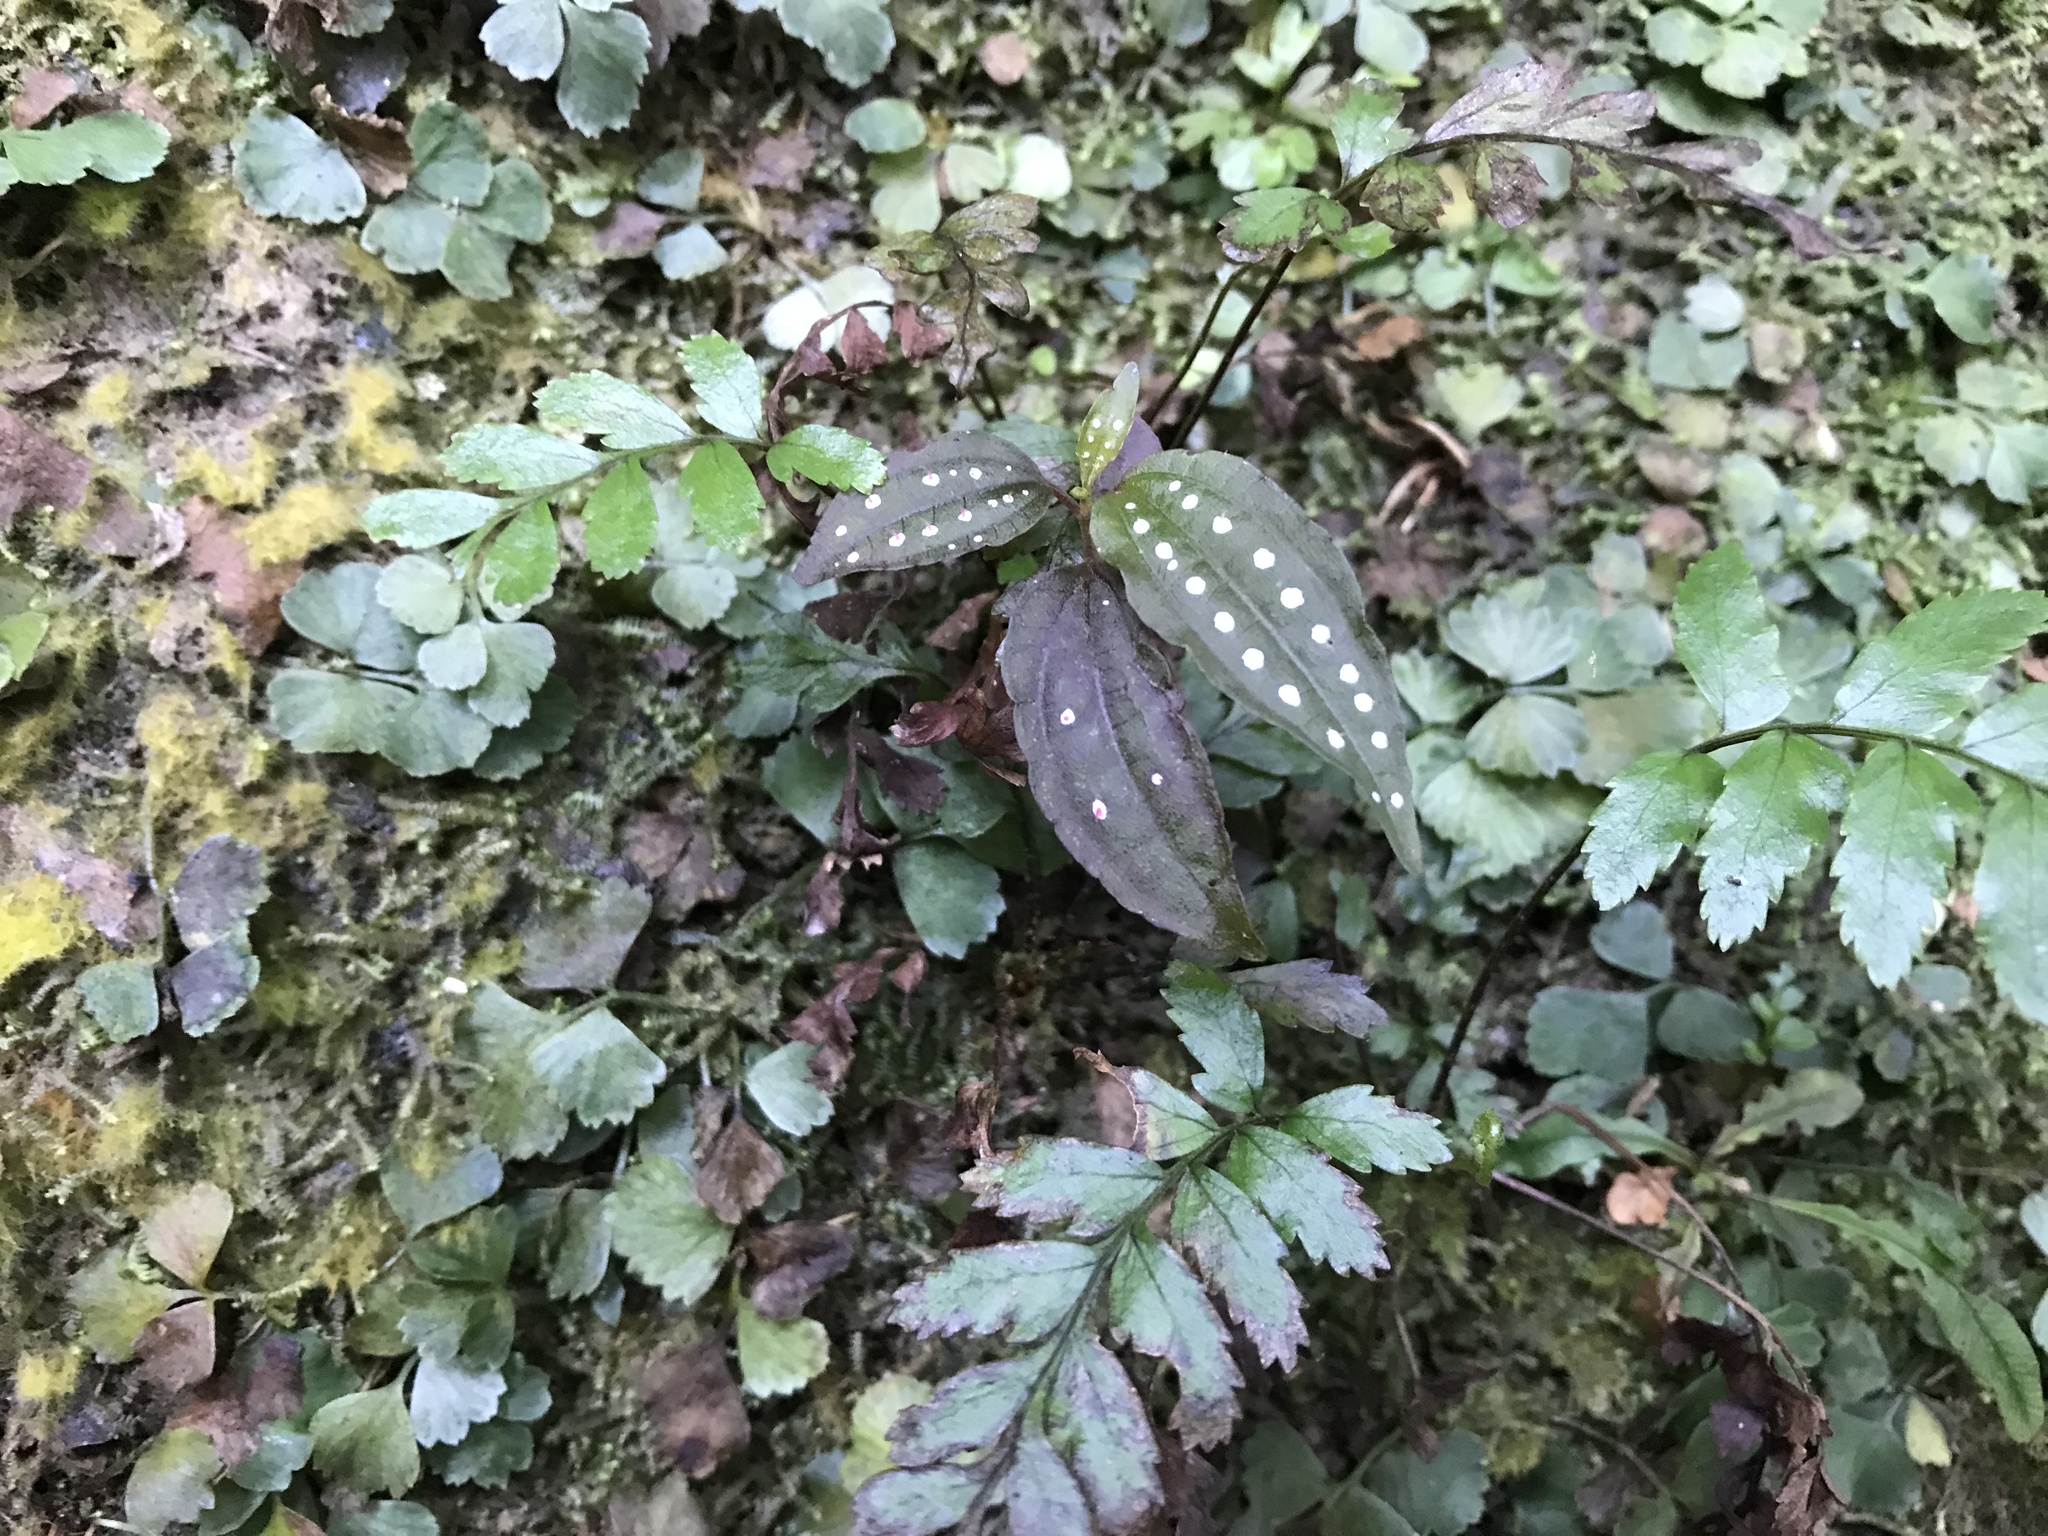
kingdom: Plantae
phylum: Tracheophyta
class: Magnoliopsida
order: Myrtales
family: Melastomataceae
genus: Blastus
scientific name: Blastus cochinchinensis
